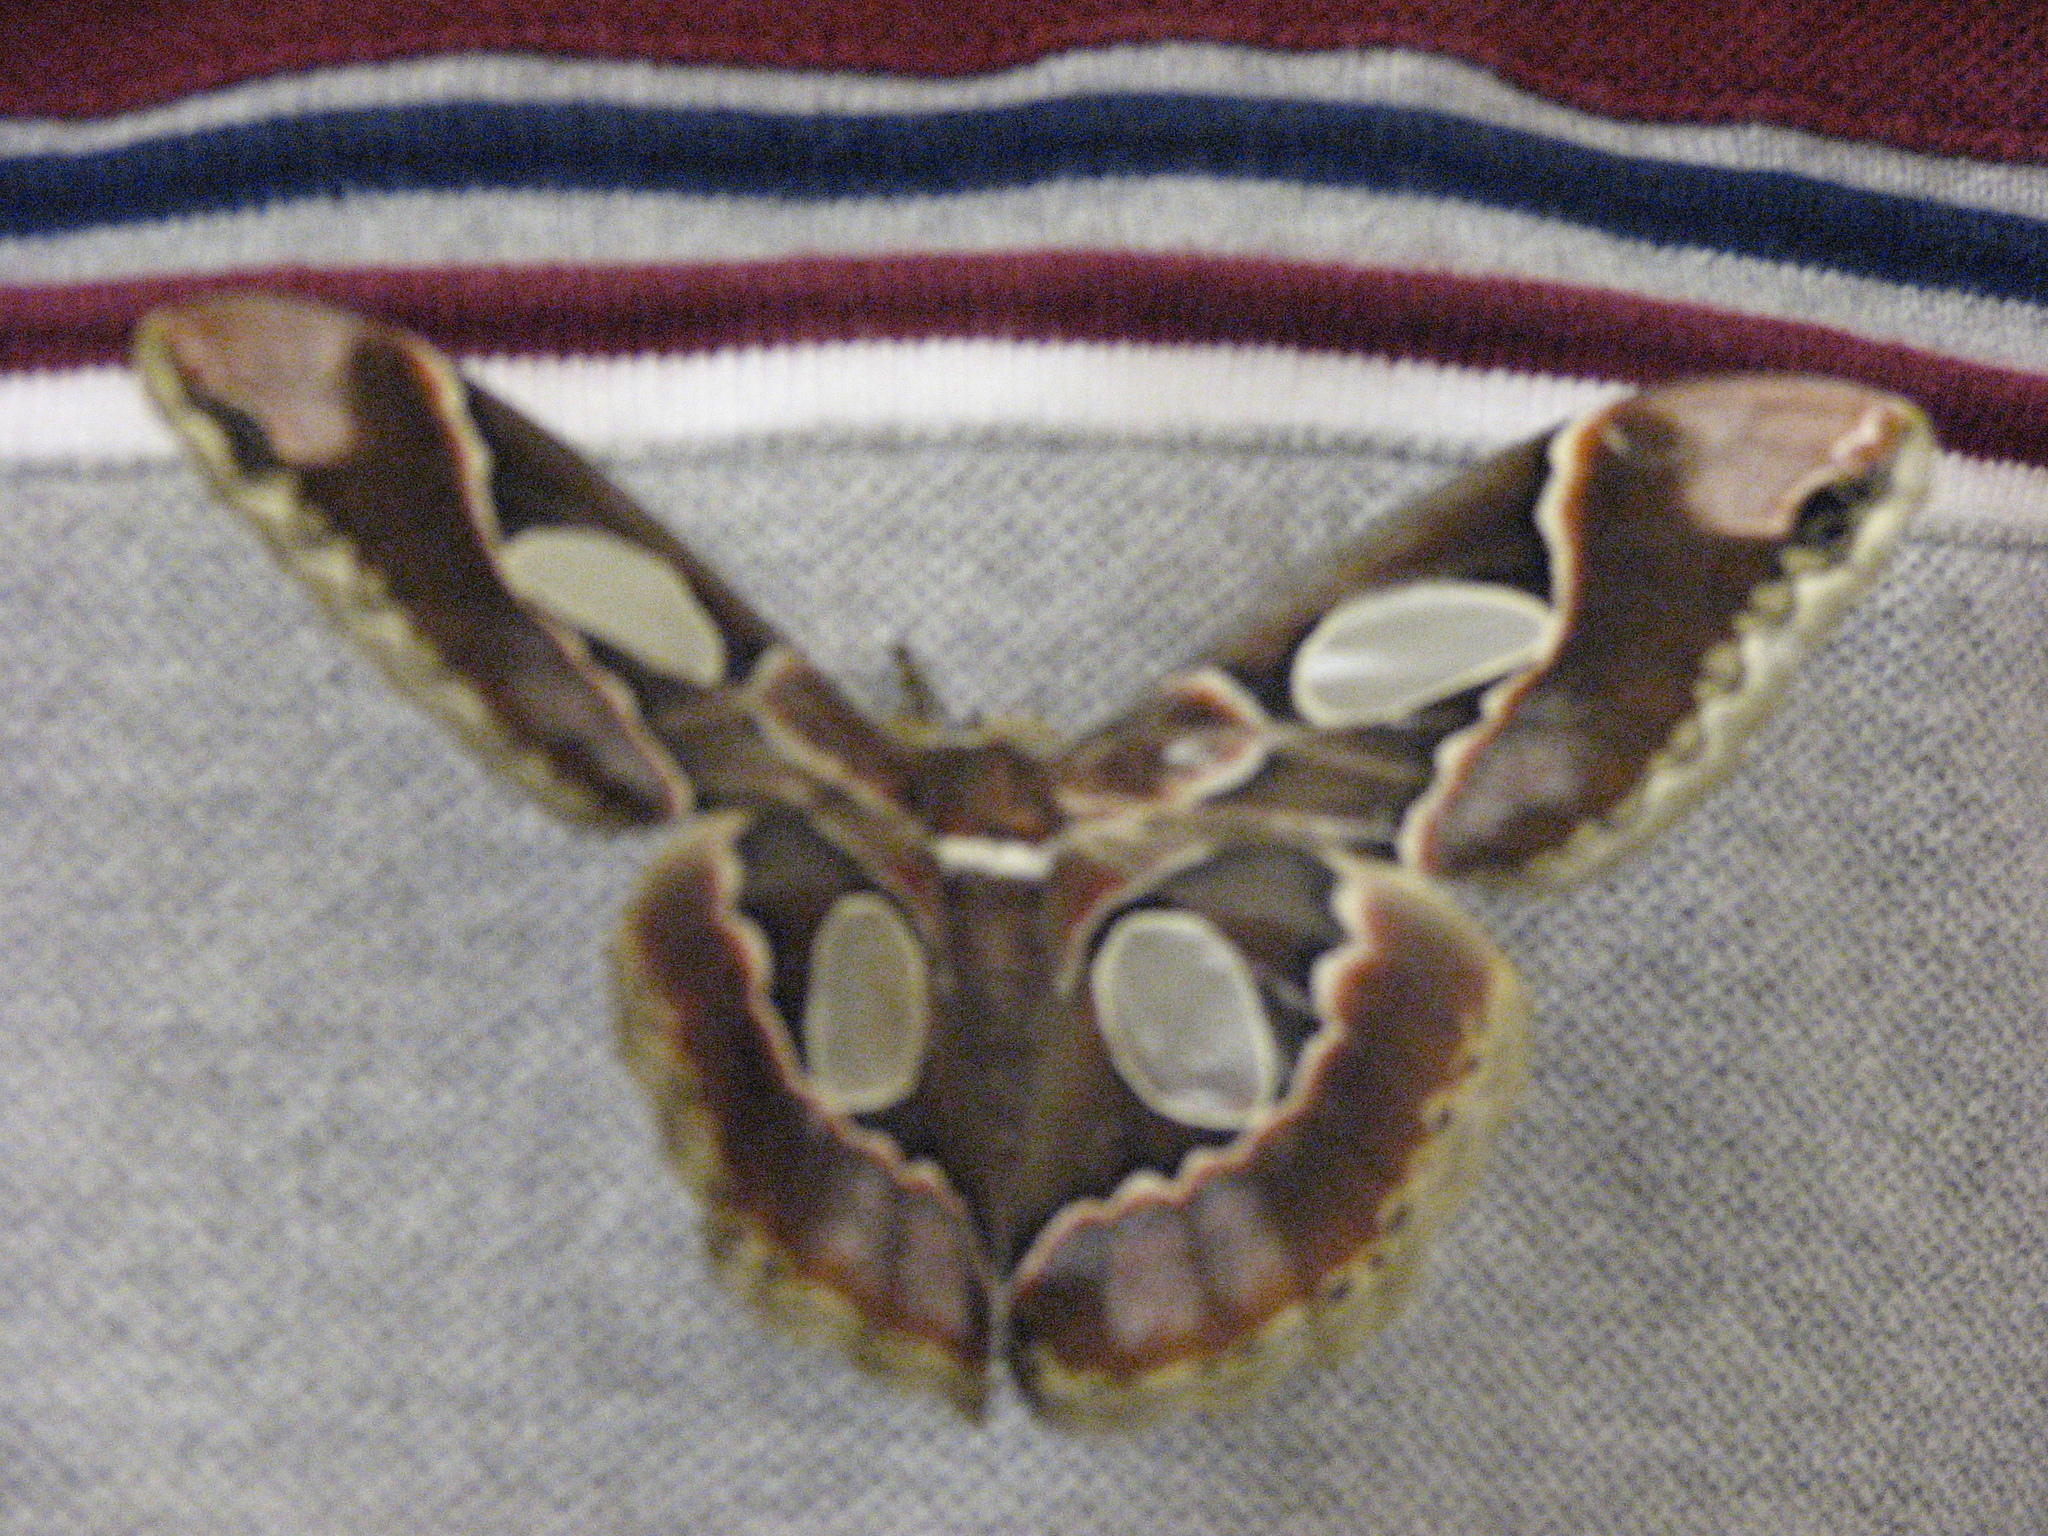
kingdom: Animalia
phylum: Arthropoda
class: Insecta
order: Lepidoptera
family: Saturniidae
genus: Rothschildia
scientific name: Rothschildia lebeau
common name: Lebeau's rothschildia
